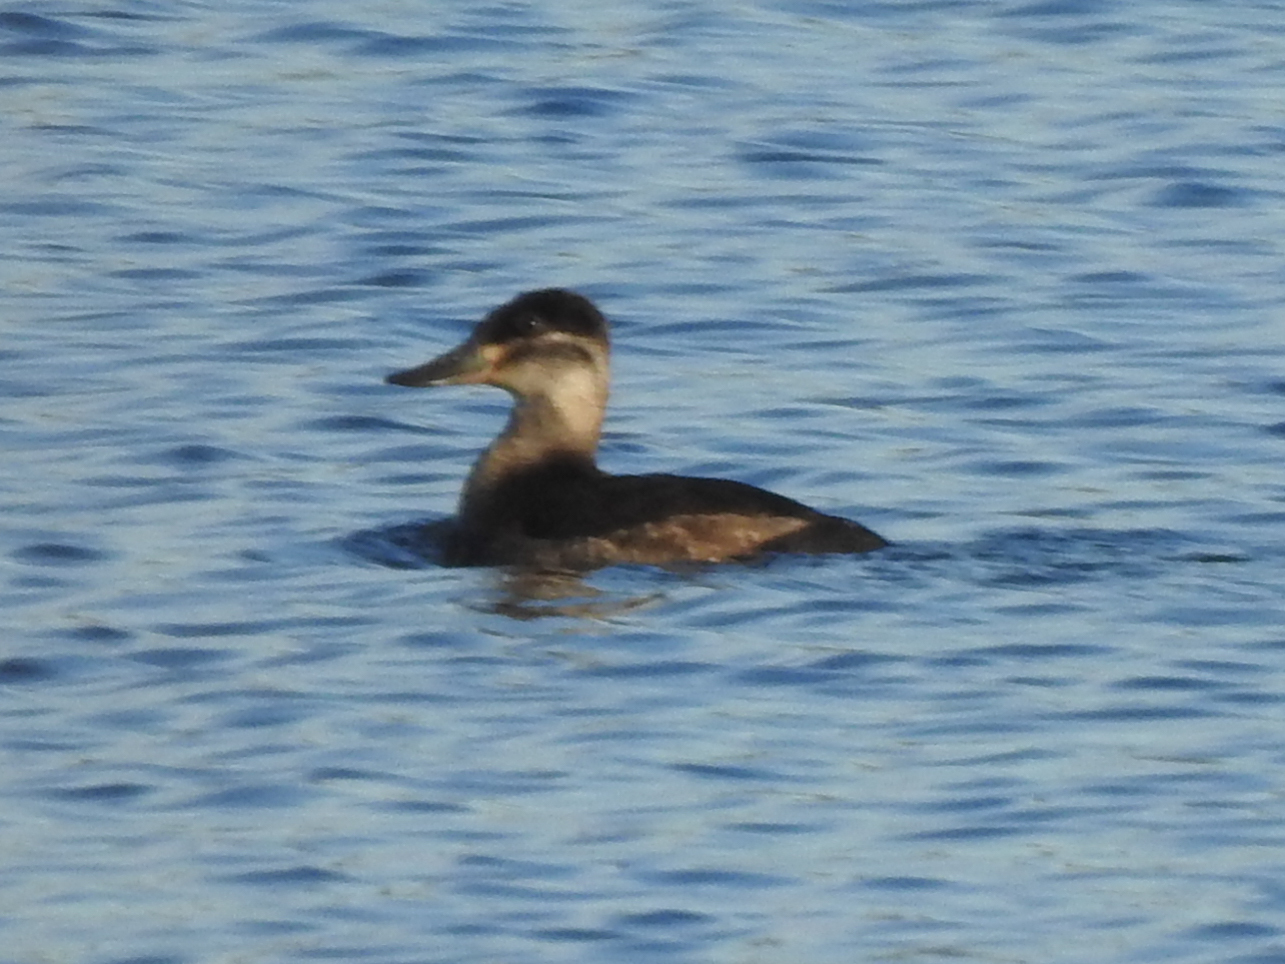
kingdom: Animalia
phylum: Chordata
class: Aves
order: Anseriformes
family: Anatidae
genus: Oxyura
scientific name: Oxyura jamaicensis
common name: Ruddy duck
